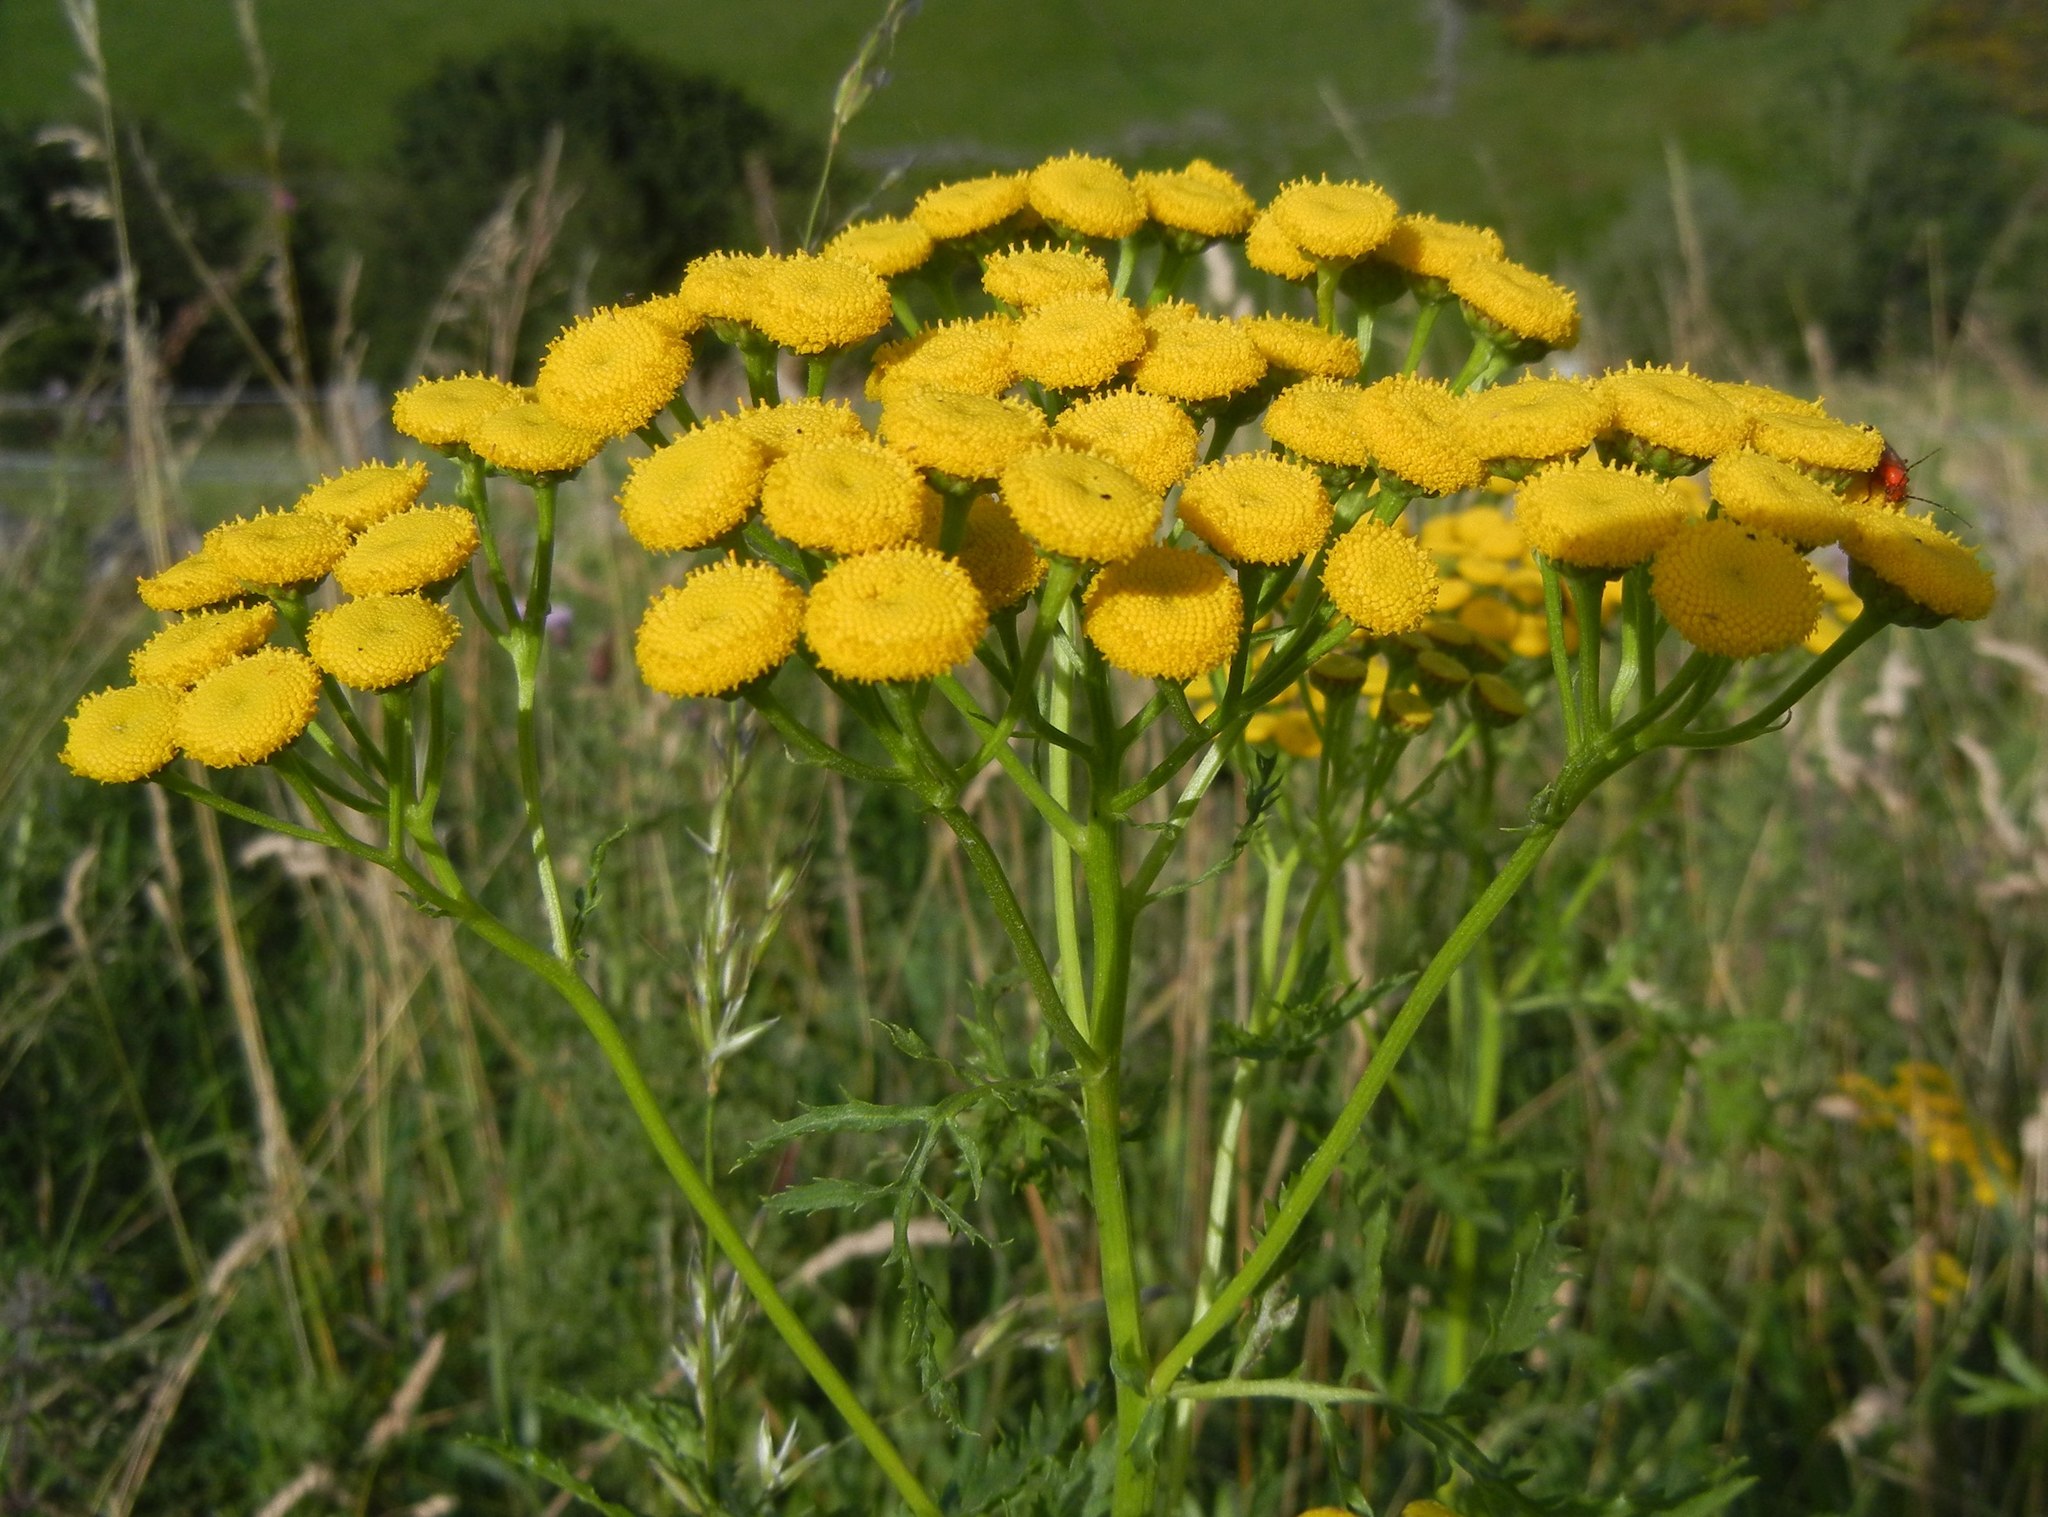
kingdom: Plantae
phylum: Tracheophyta
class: Magnoliopsida
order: Asterales
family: Asteraceae
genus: Tanacetum
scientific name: Tanacetum vulgare
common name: Common tansy
